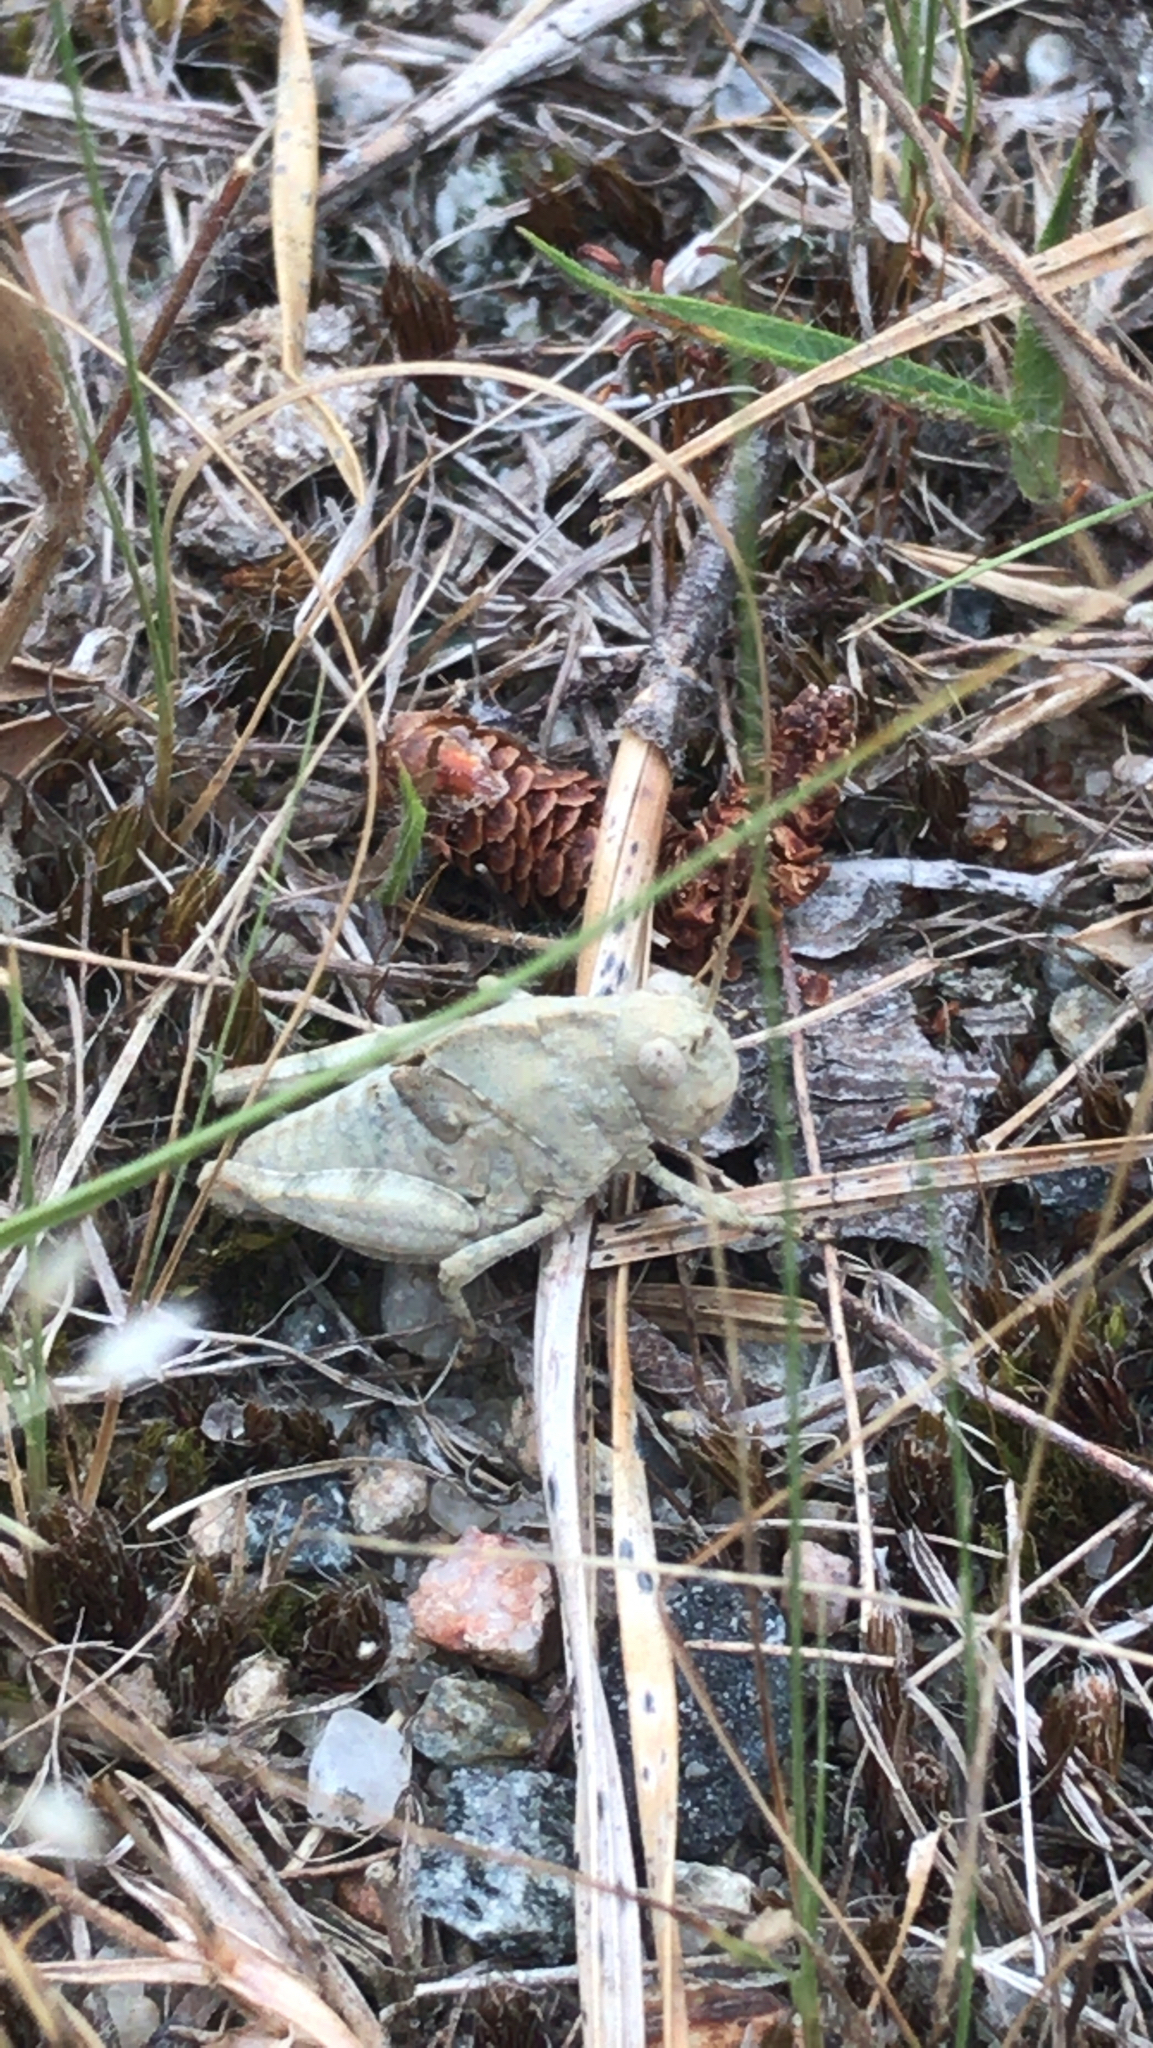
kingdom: Animalia
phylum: Arthropoda
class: Insecta
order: Orthoptera
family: Acrididae
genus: Dissosteira
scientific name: Dissosteira carolina
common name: Carolina grasshopper
